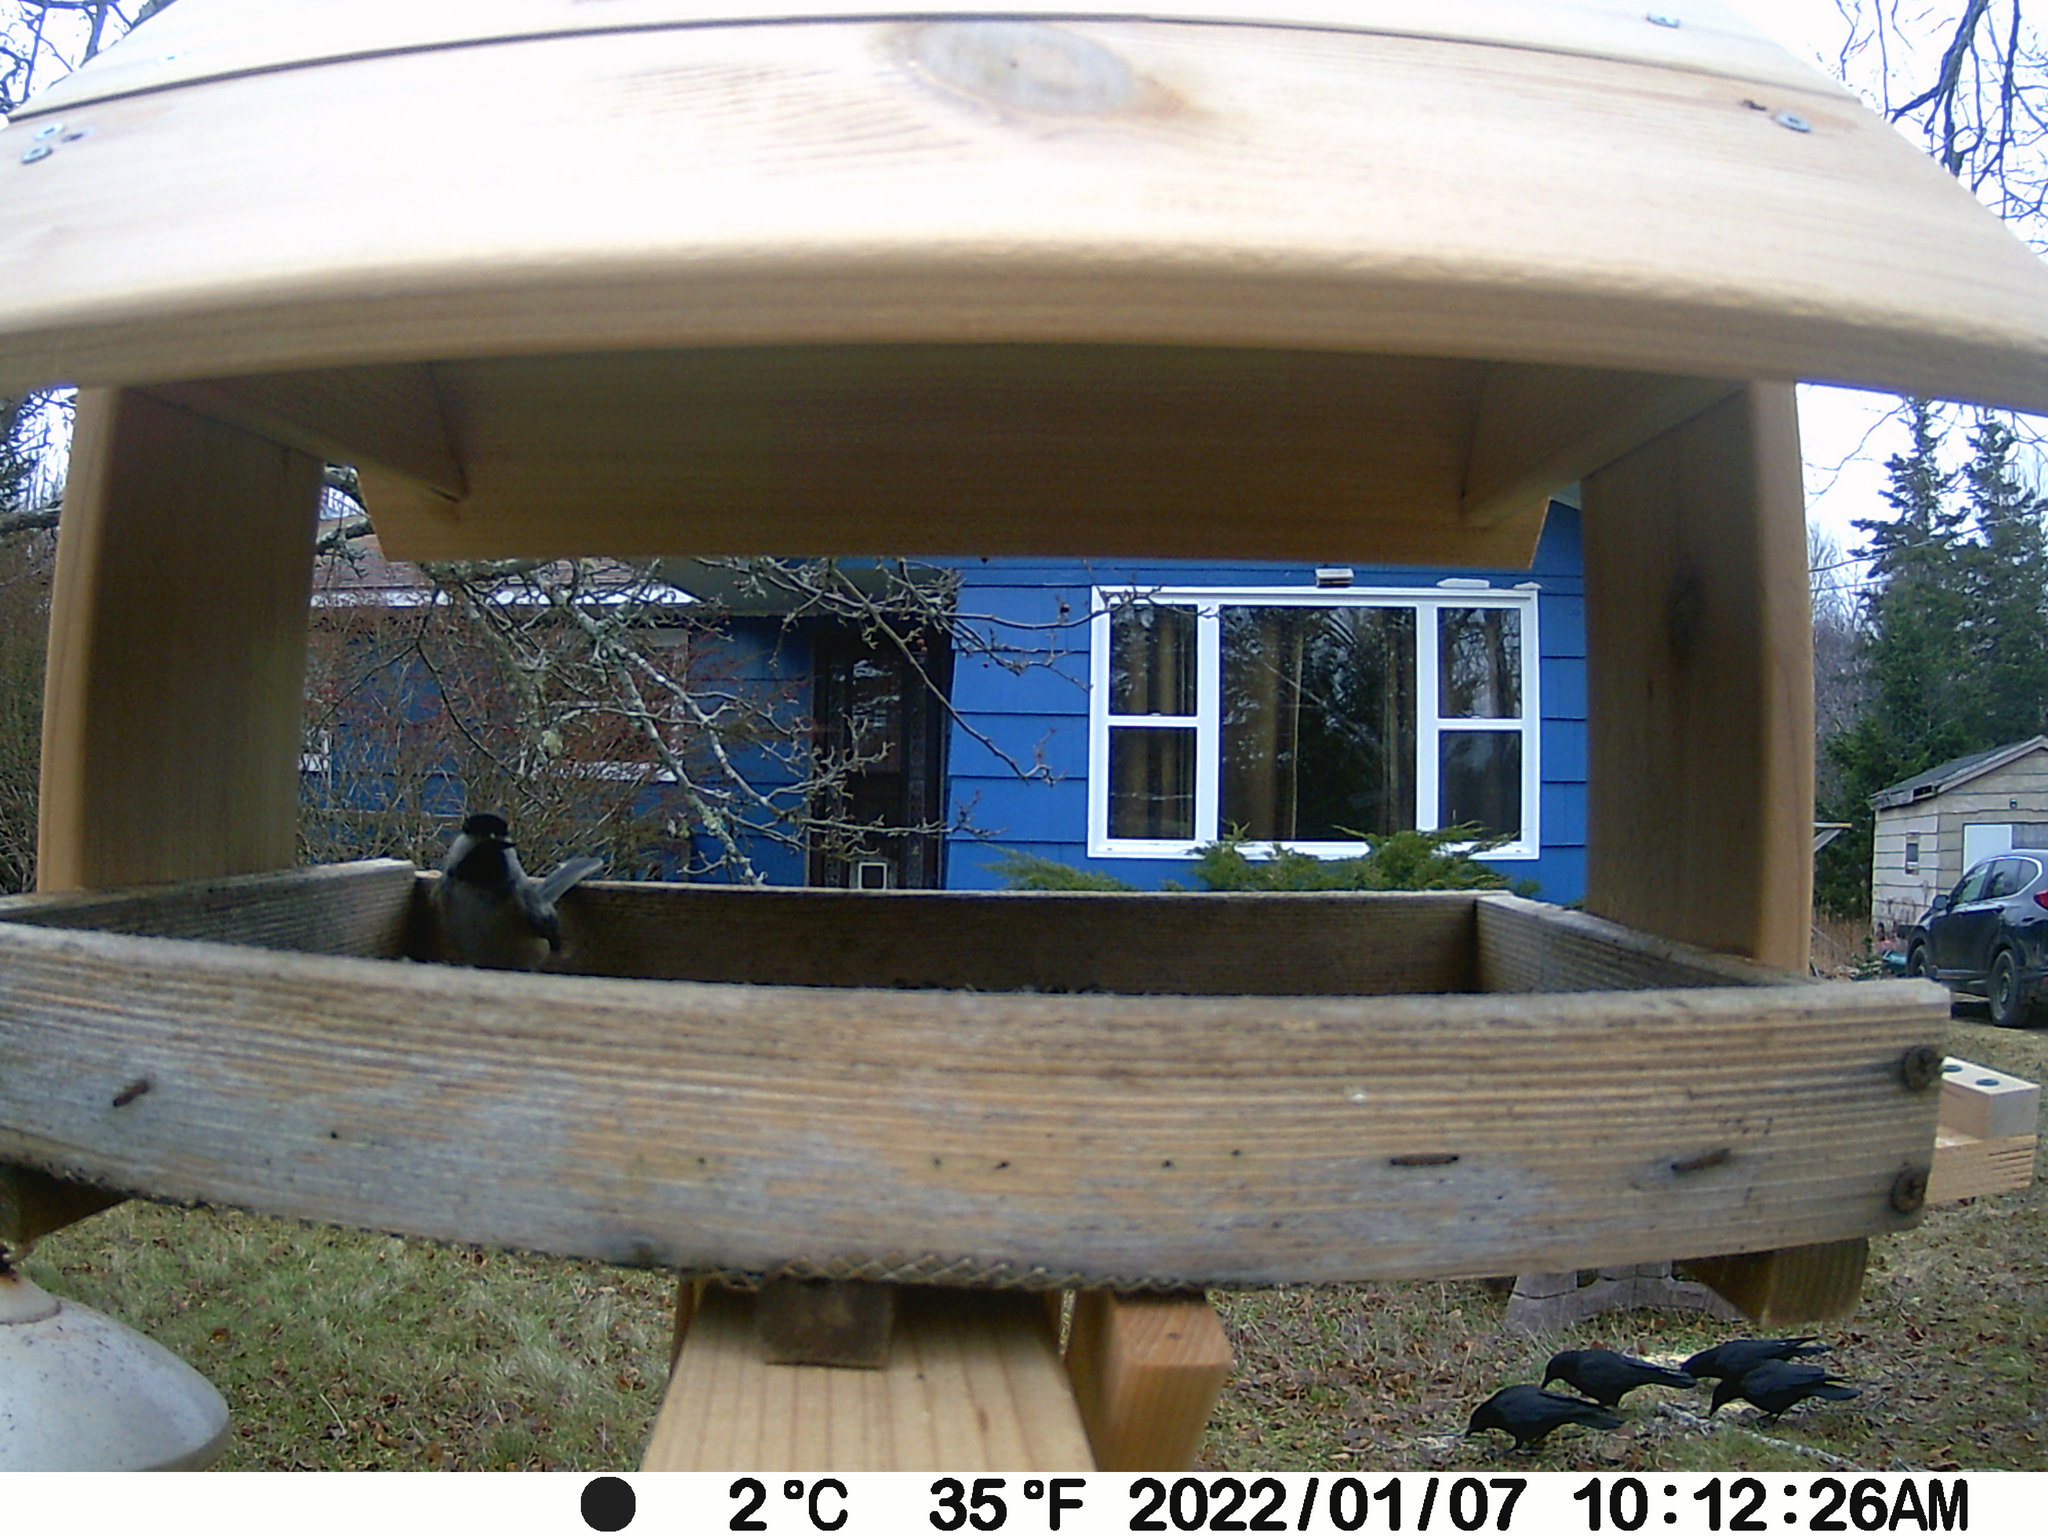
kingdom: Animalia
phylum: Chordata
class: Aves
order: Passeriformes
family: Corvidae
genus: Corvus
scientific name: Corvus brachyrhynchos
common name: American crow
